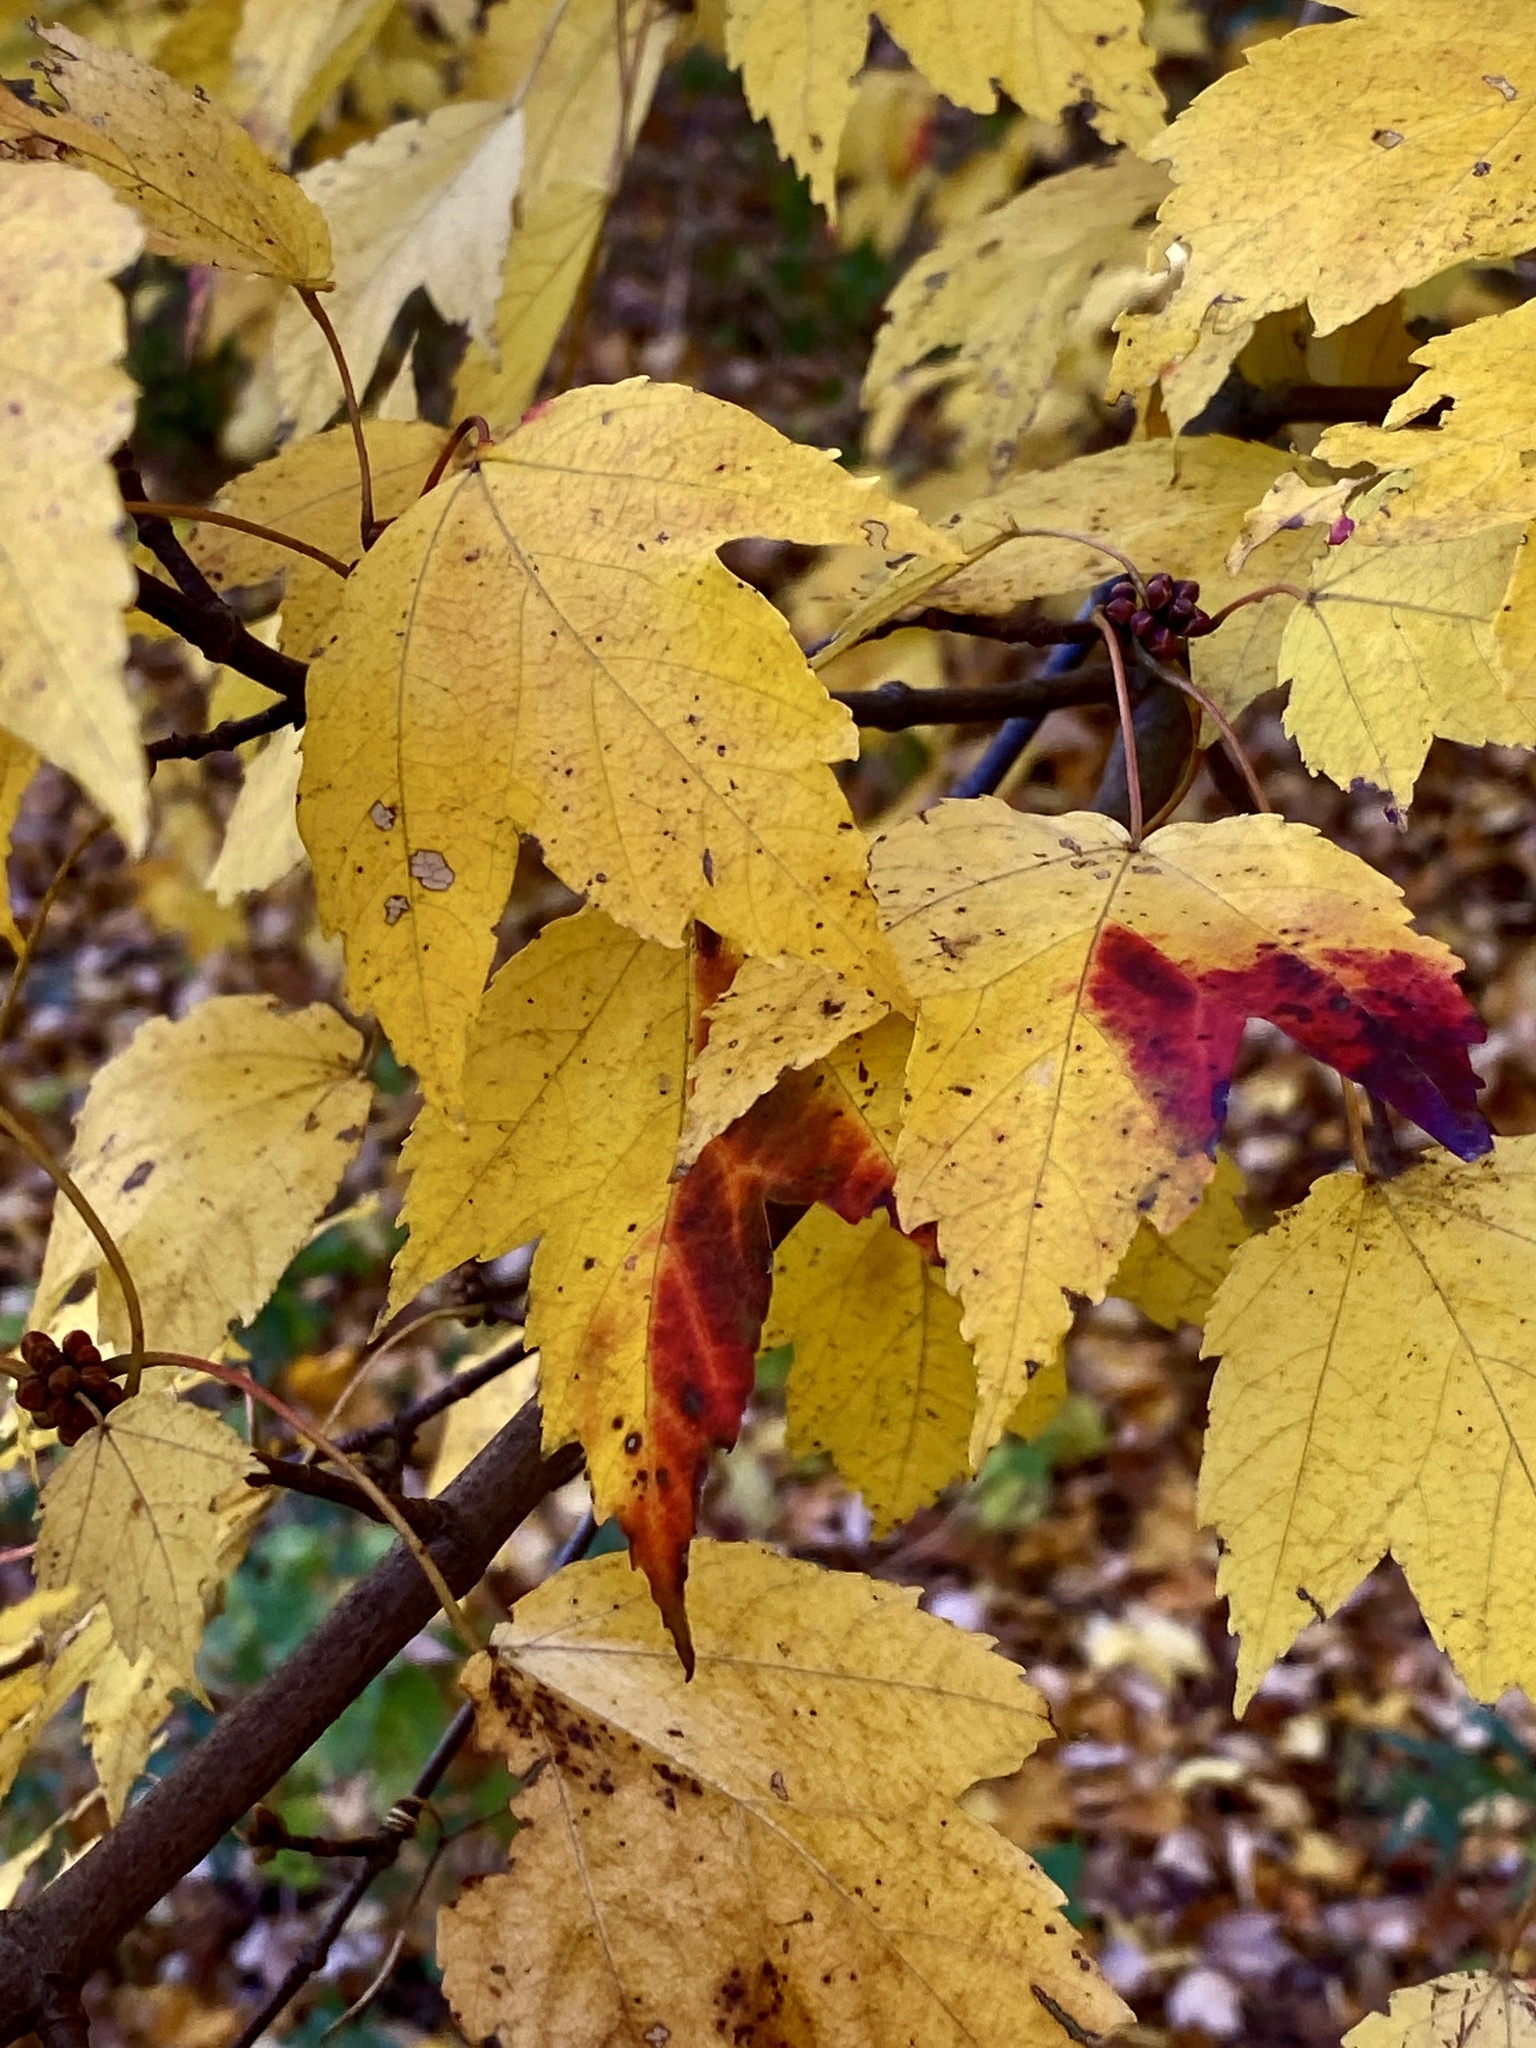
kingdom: Plantae
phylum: Tracheophyta
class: Magnoliopsida
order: Sapindales
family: Sapindaceae
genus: Acer
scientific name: Acer rubrum
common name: Red maple
